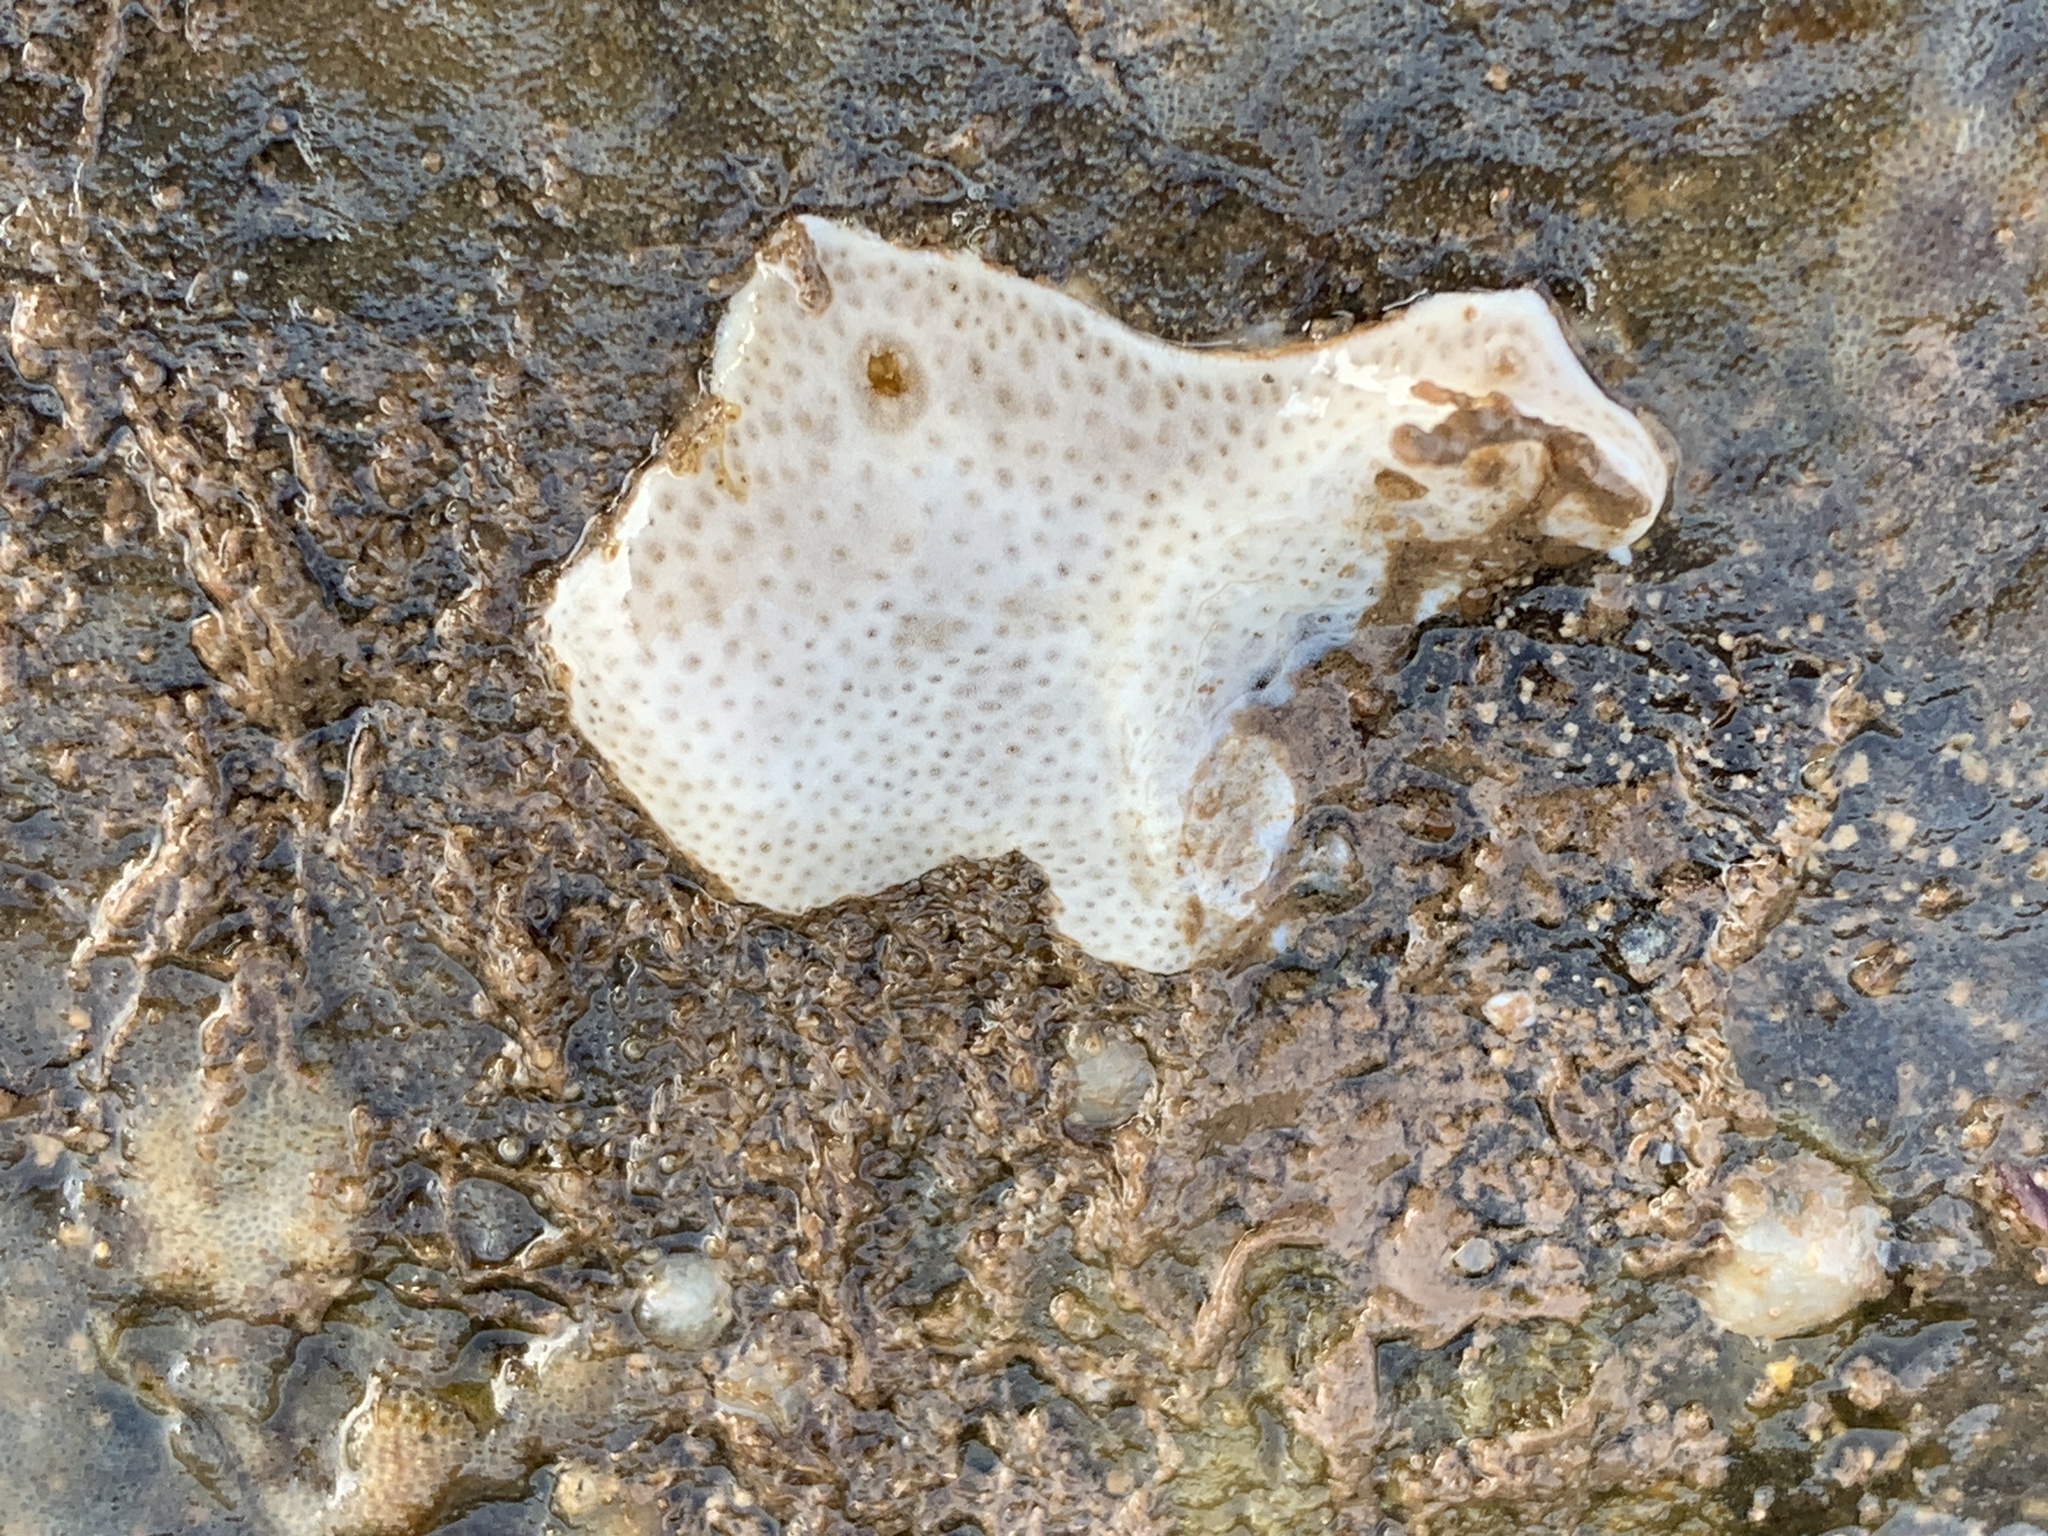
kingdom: Animalia
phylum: Chordata
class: Ascidiacea
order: Aplousobranchia
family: Didemnidae
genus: Didemnum
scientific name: Didemnum albidum
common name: Northern white crust
